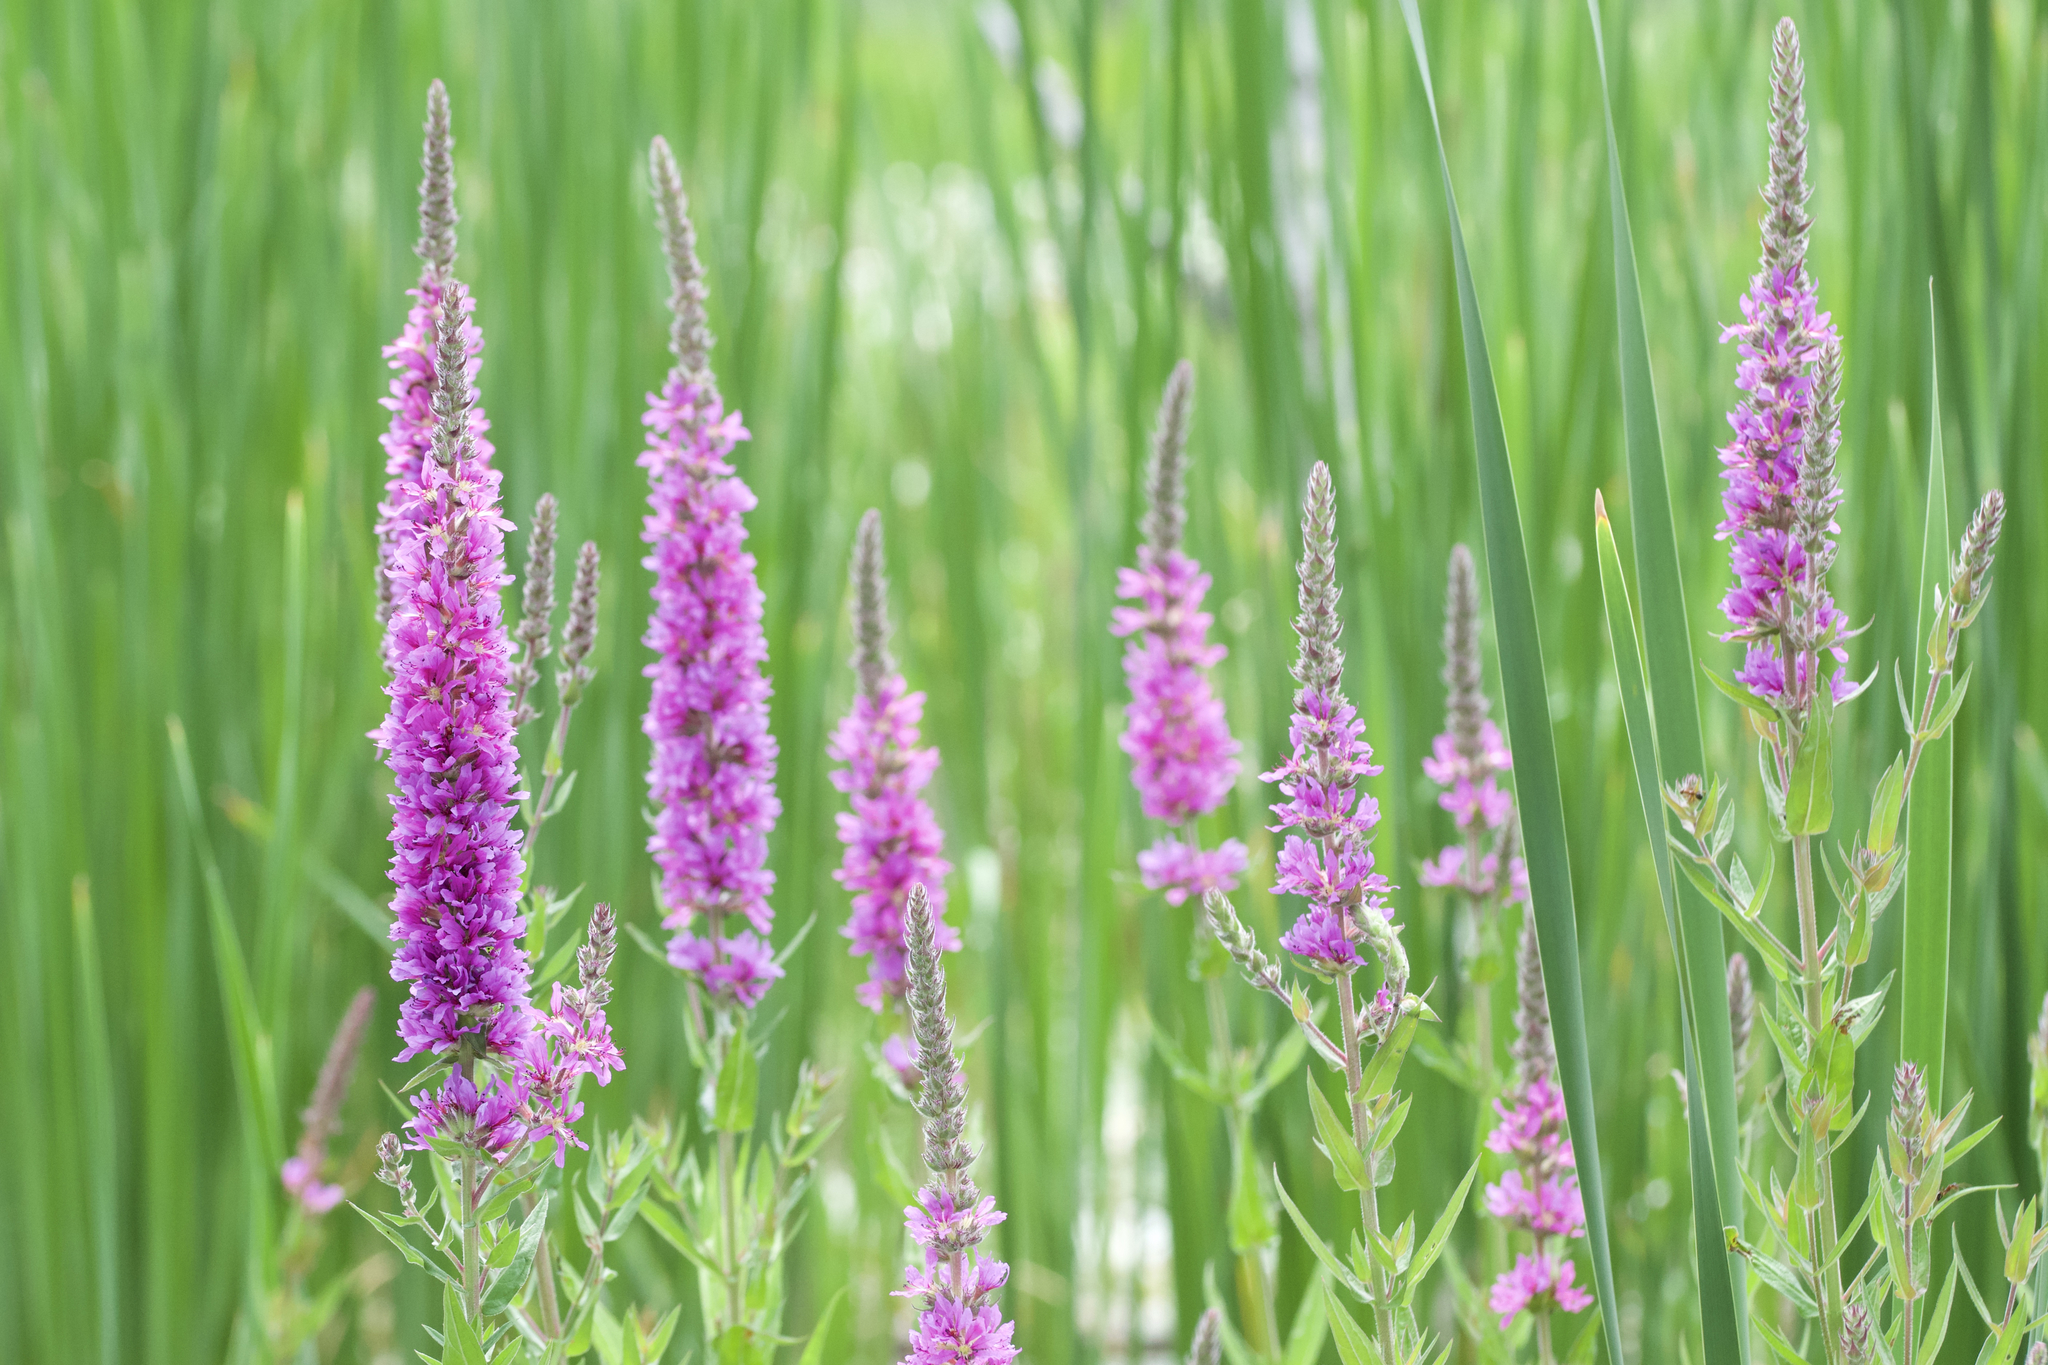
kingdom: Plantae
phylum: Tracheophyta
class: Magnoliopsida
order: Myrtales
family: Lythraceae
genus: Lythrum
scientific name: Lythrum salicaria
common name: Purple loosestrife
